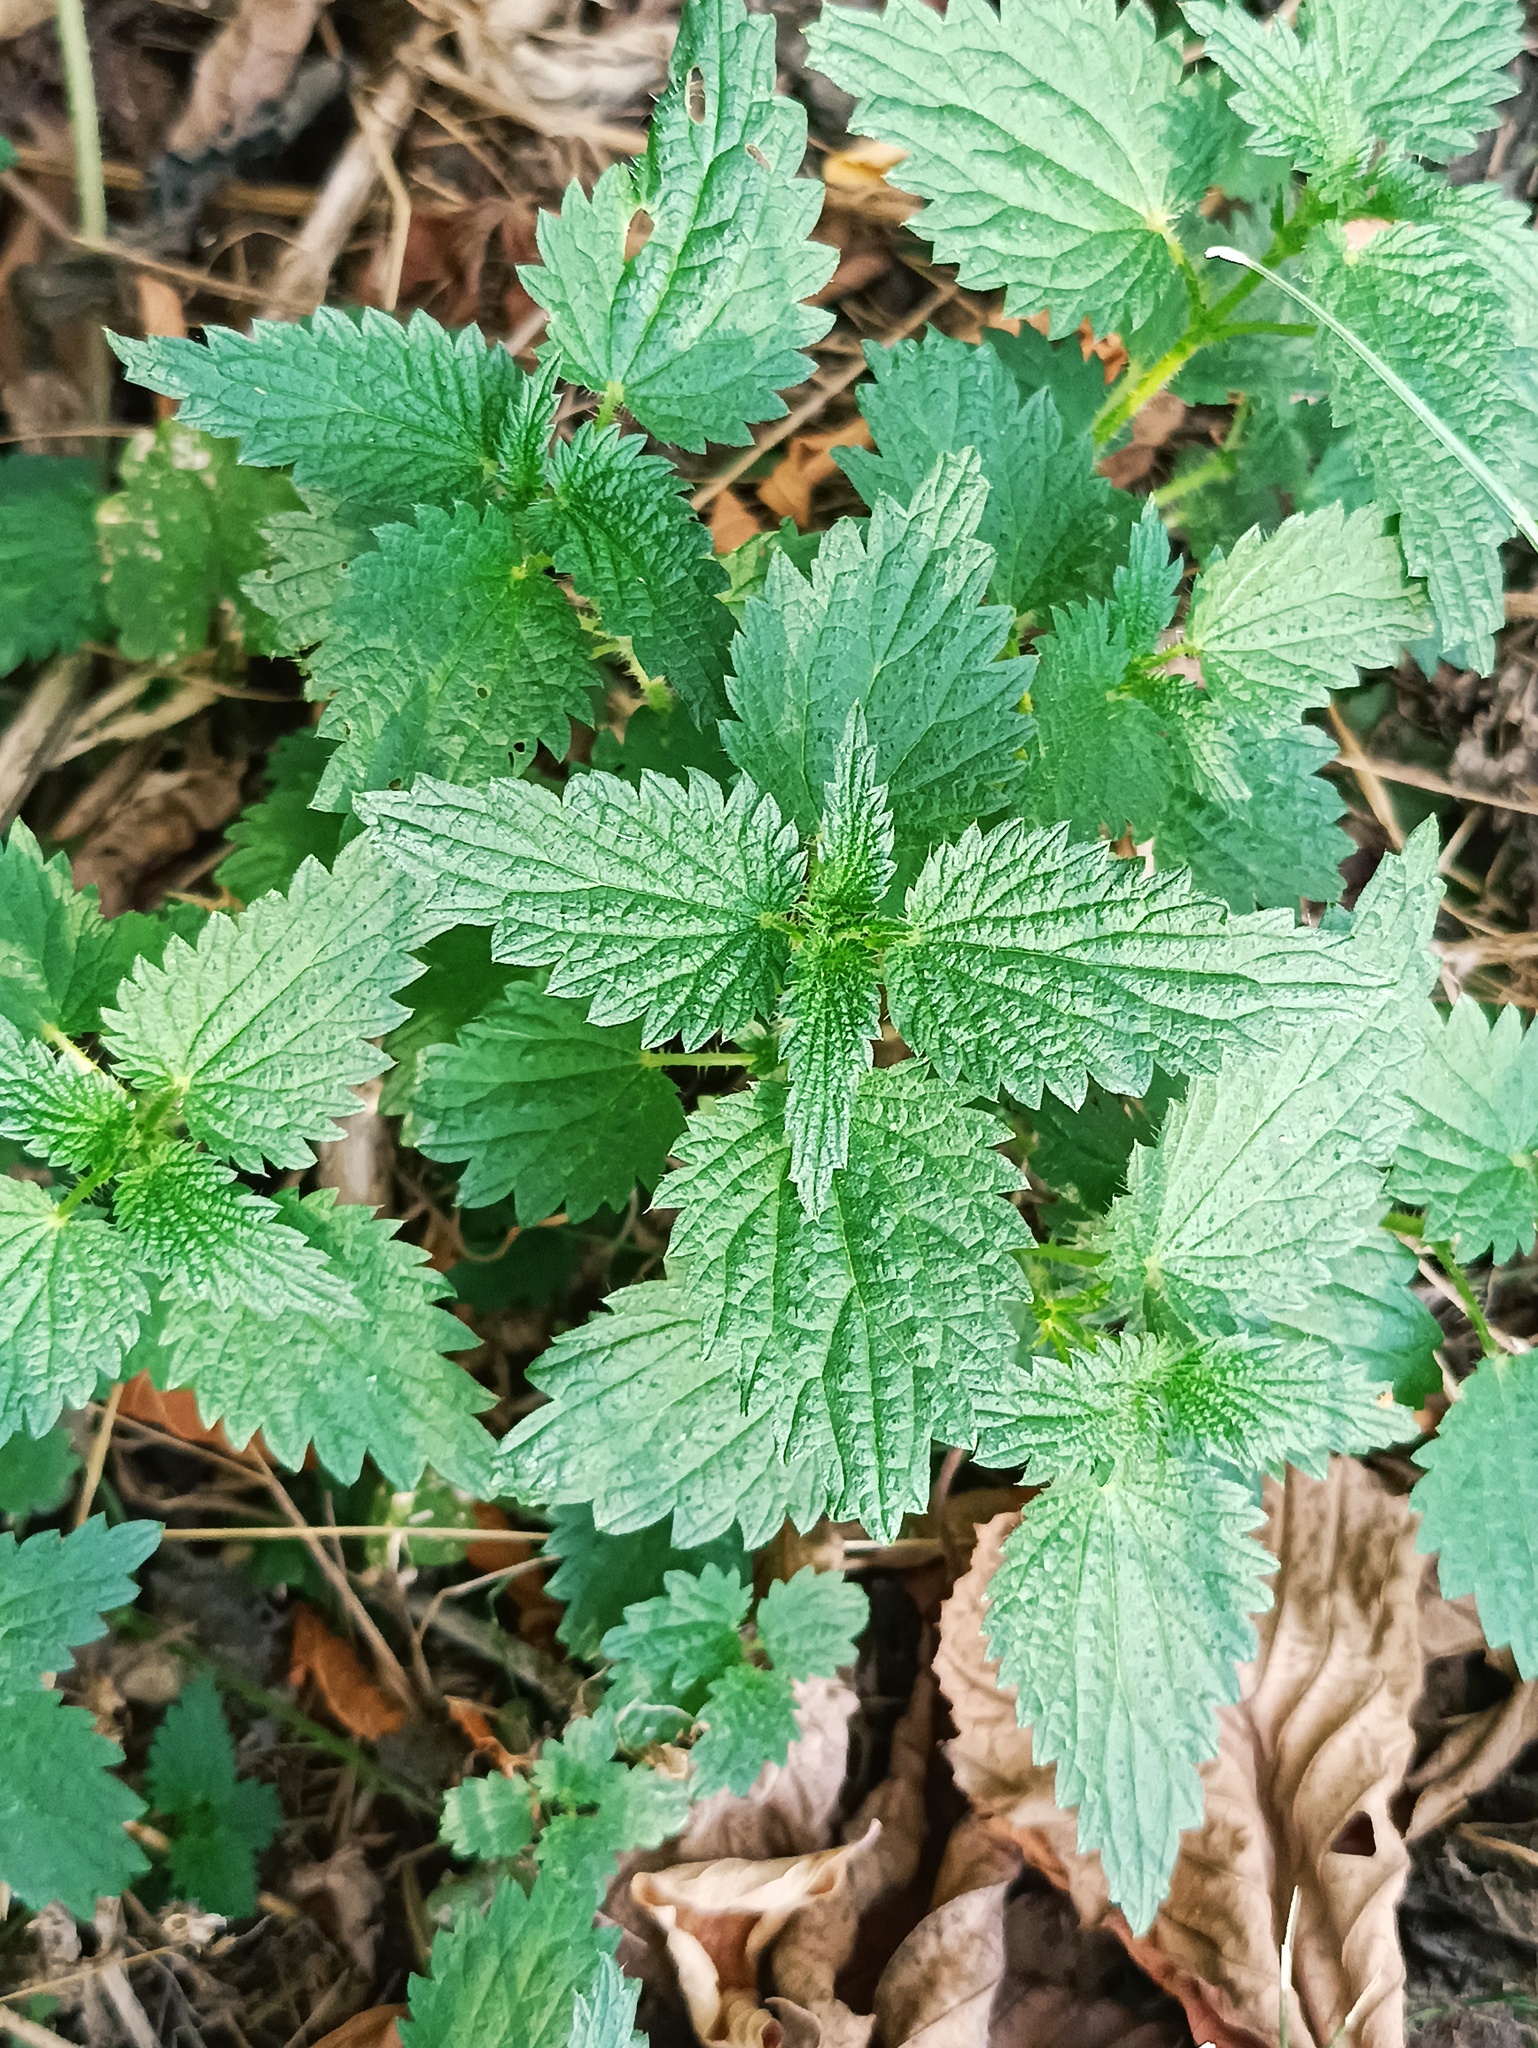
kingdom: Plantae
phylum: Tracheophyta
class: Magnoliopsida
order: Rosales
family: Urticaceae
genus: Urtica
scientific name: Urtica dioica
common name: Common nettle
